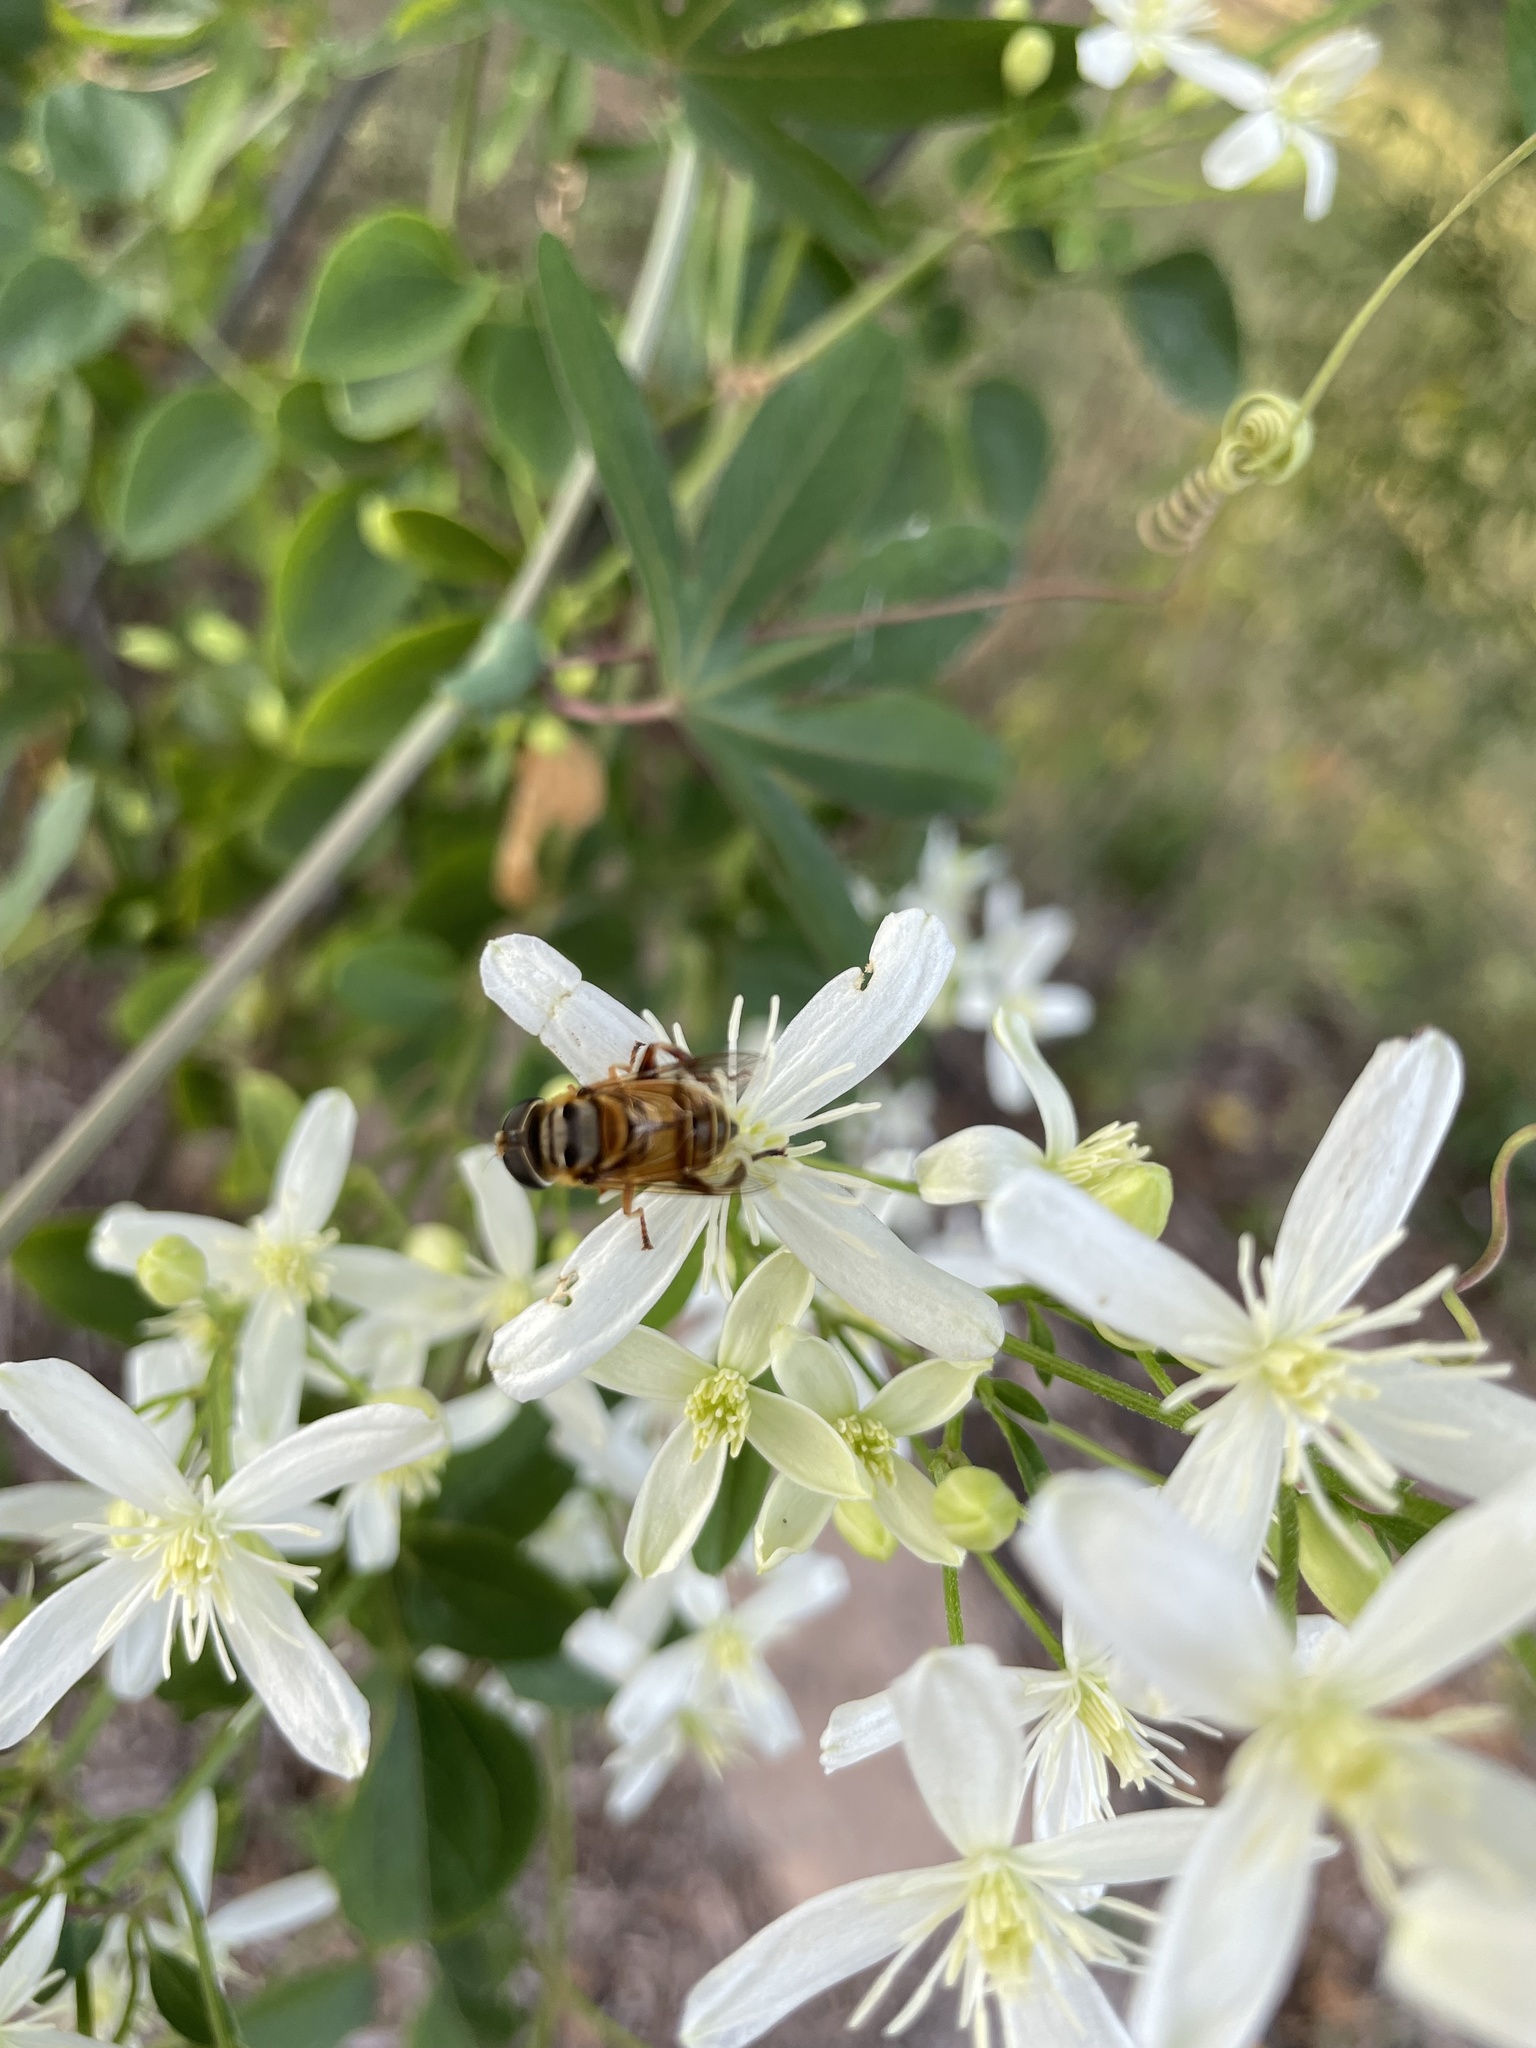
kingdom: Animalia
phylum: Arthropoda
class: Insecta
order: Diptera
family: Syrphidae
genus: Palpada
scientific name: Palpada vinetorum
